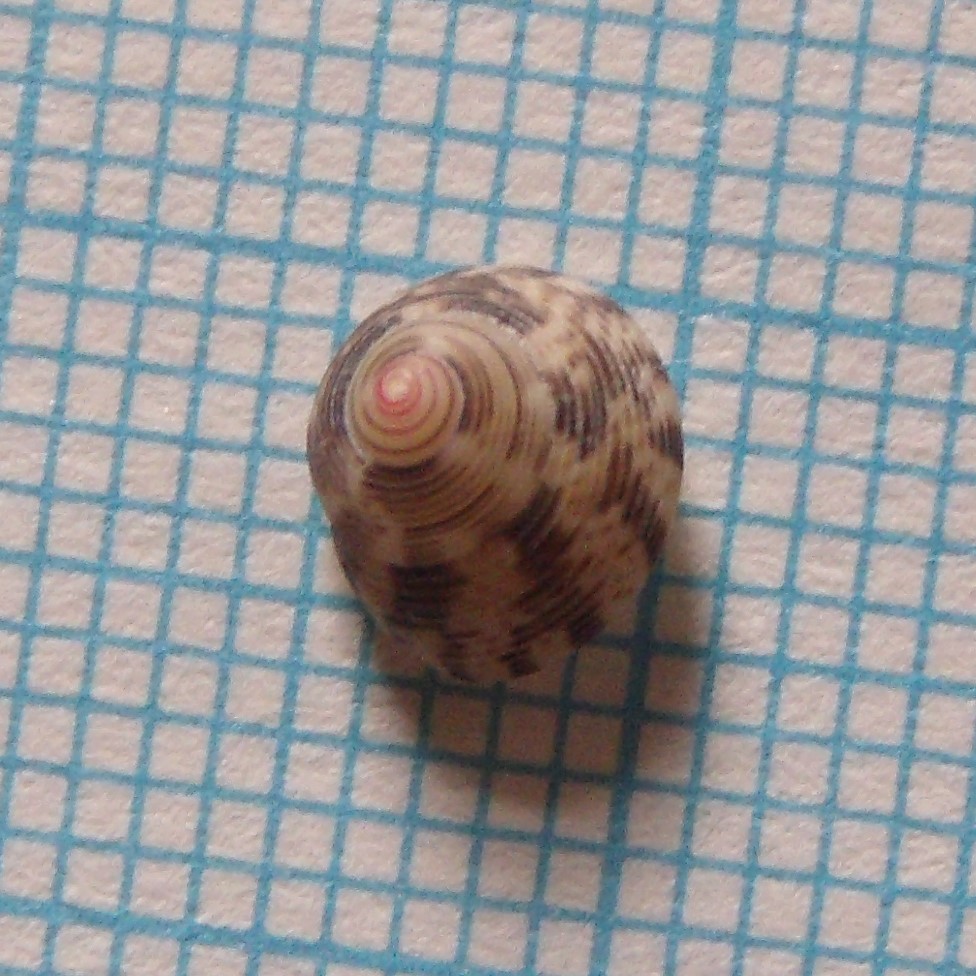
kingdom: Animalia
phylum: Mollusca
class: Gastropoda
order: Trochida
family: Trochidae
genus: Coelotrochus
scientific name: Coelotrochus chathamensis
